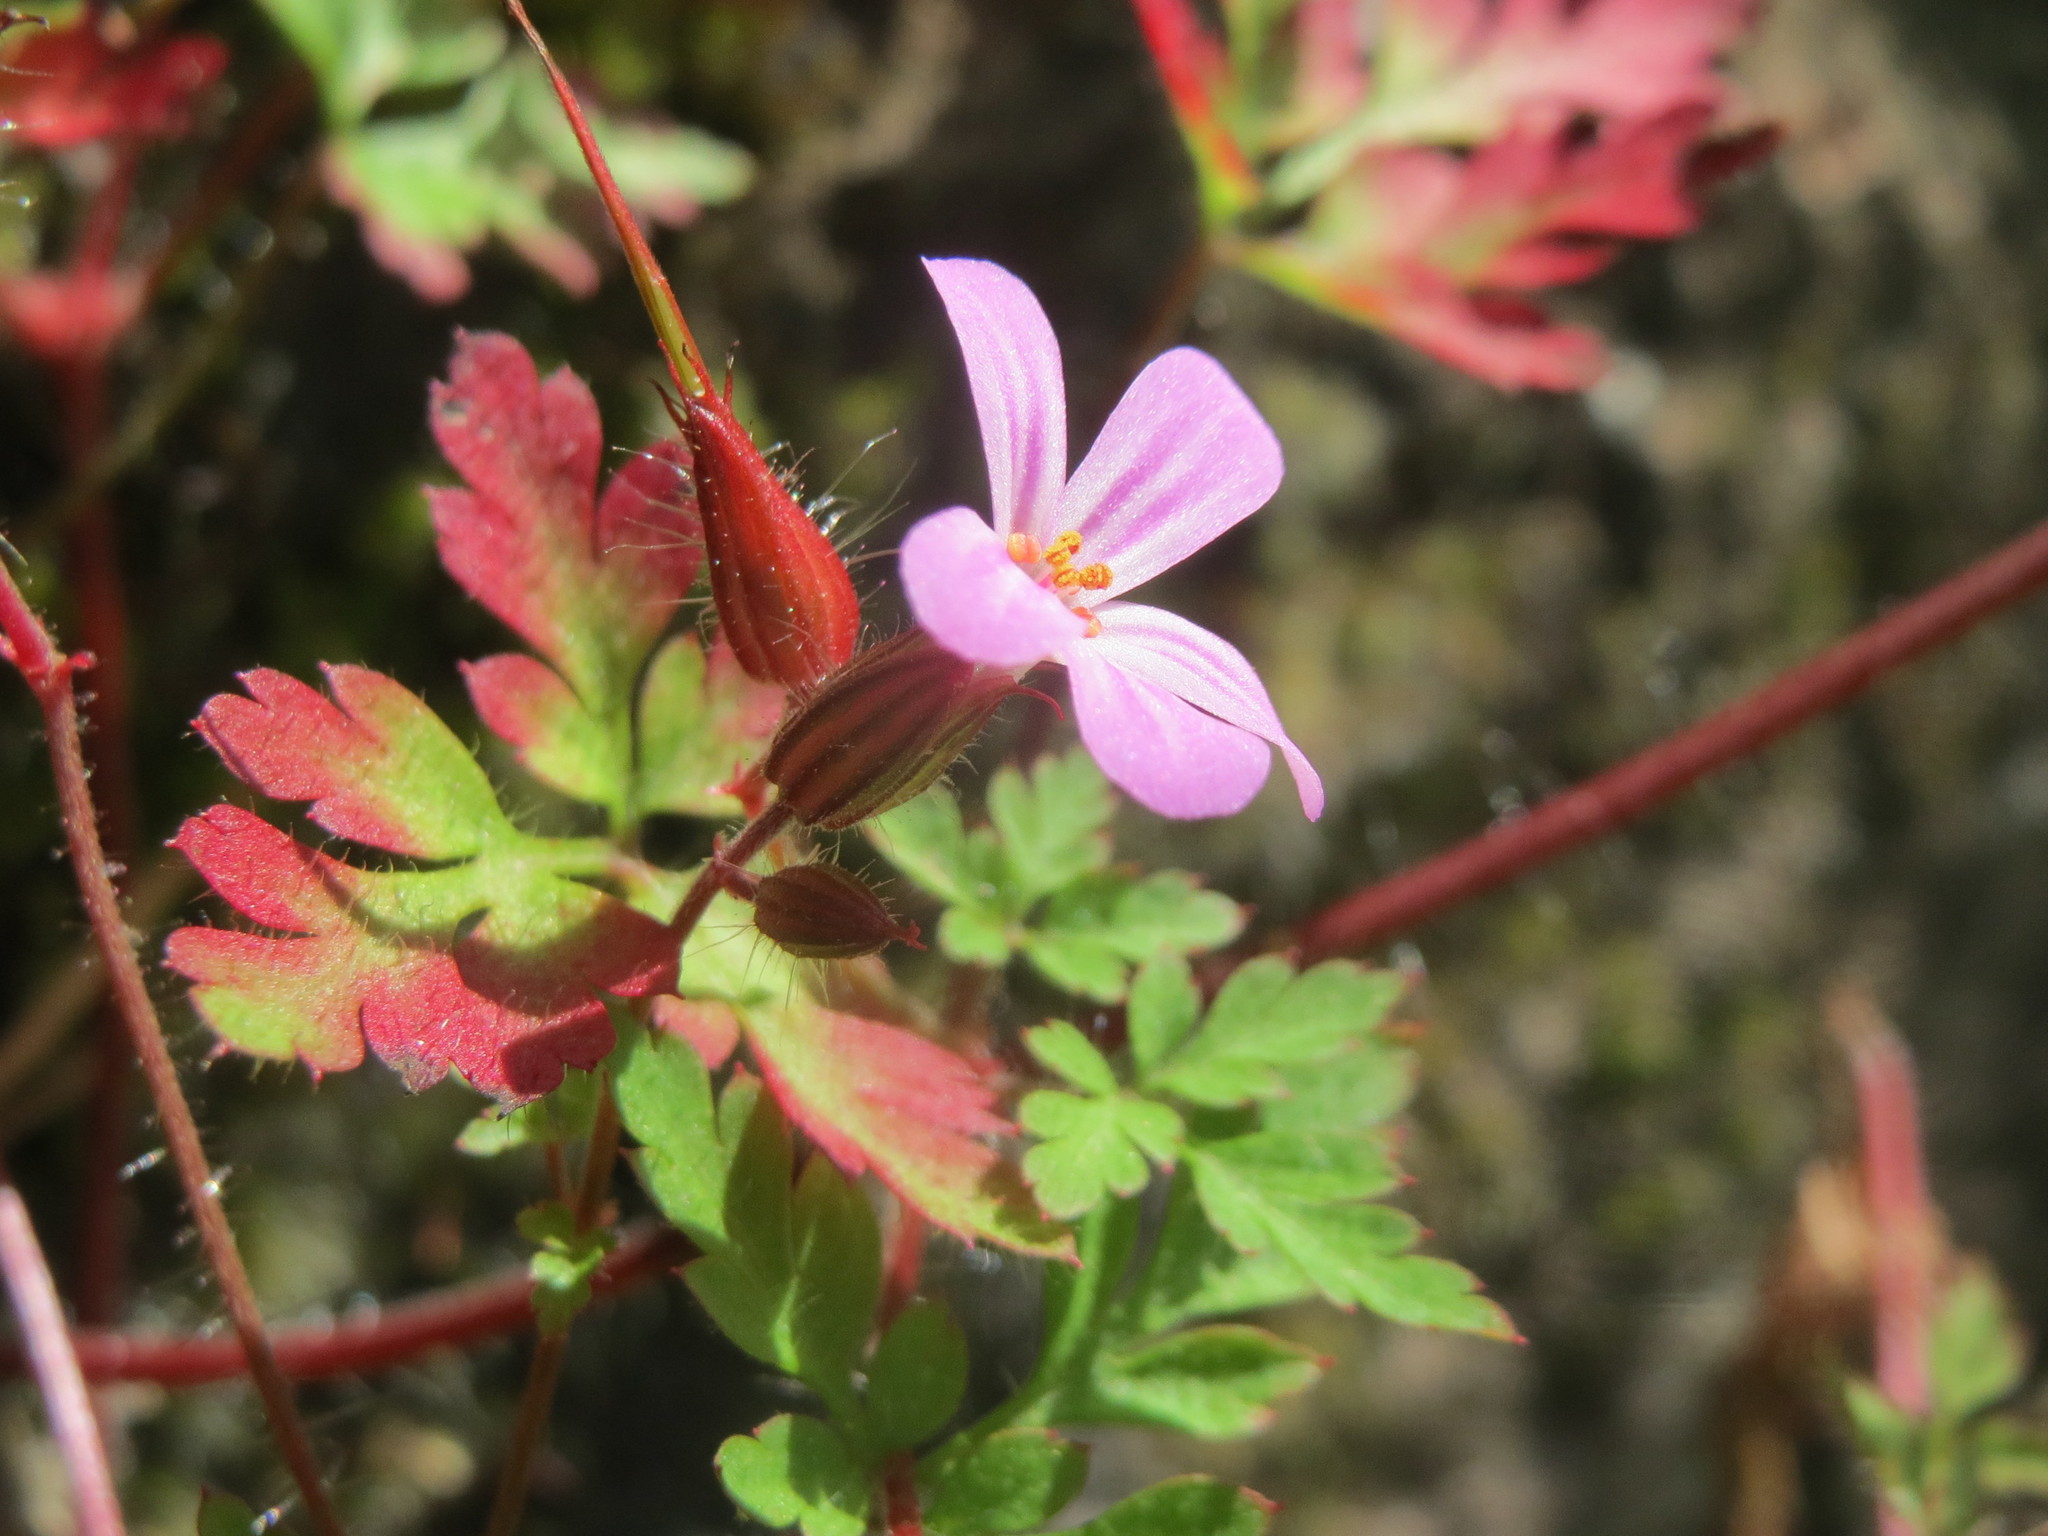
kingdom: Plantae
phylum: Tracheophyta
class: Magnoliopsida
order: Geraniales
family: Geraniaceae
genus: Geranium
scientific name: Geranium robertianum
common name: Herb-robert
